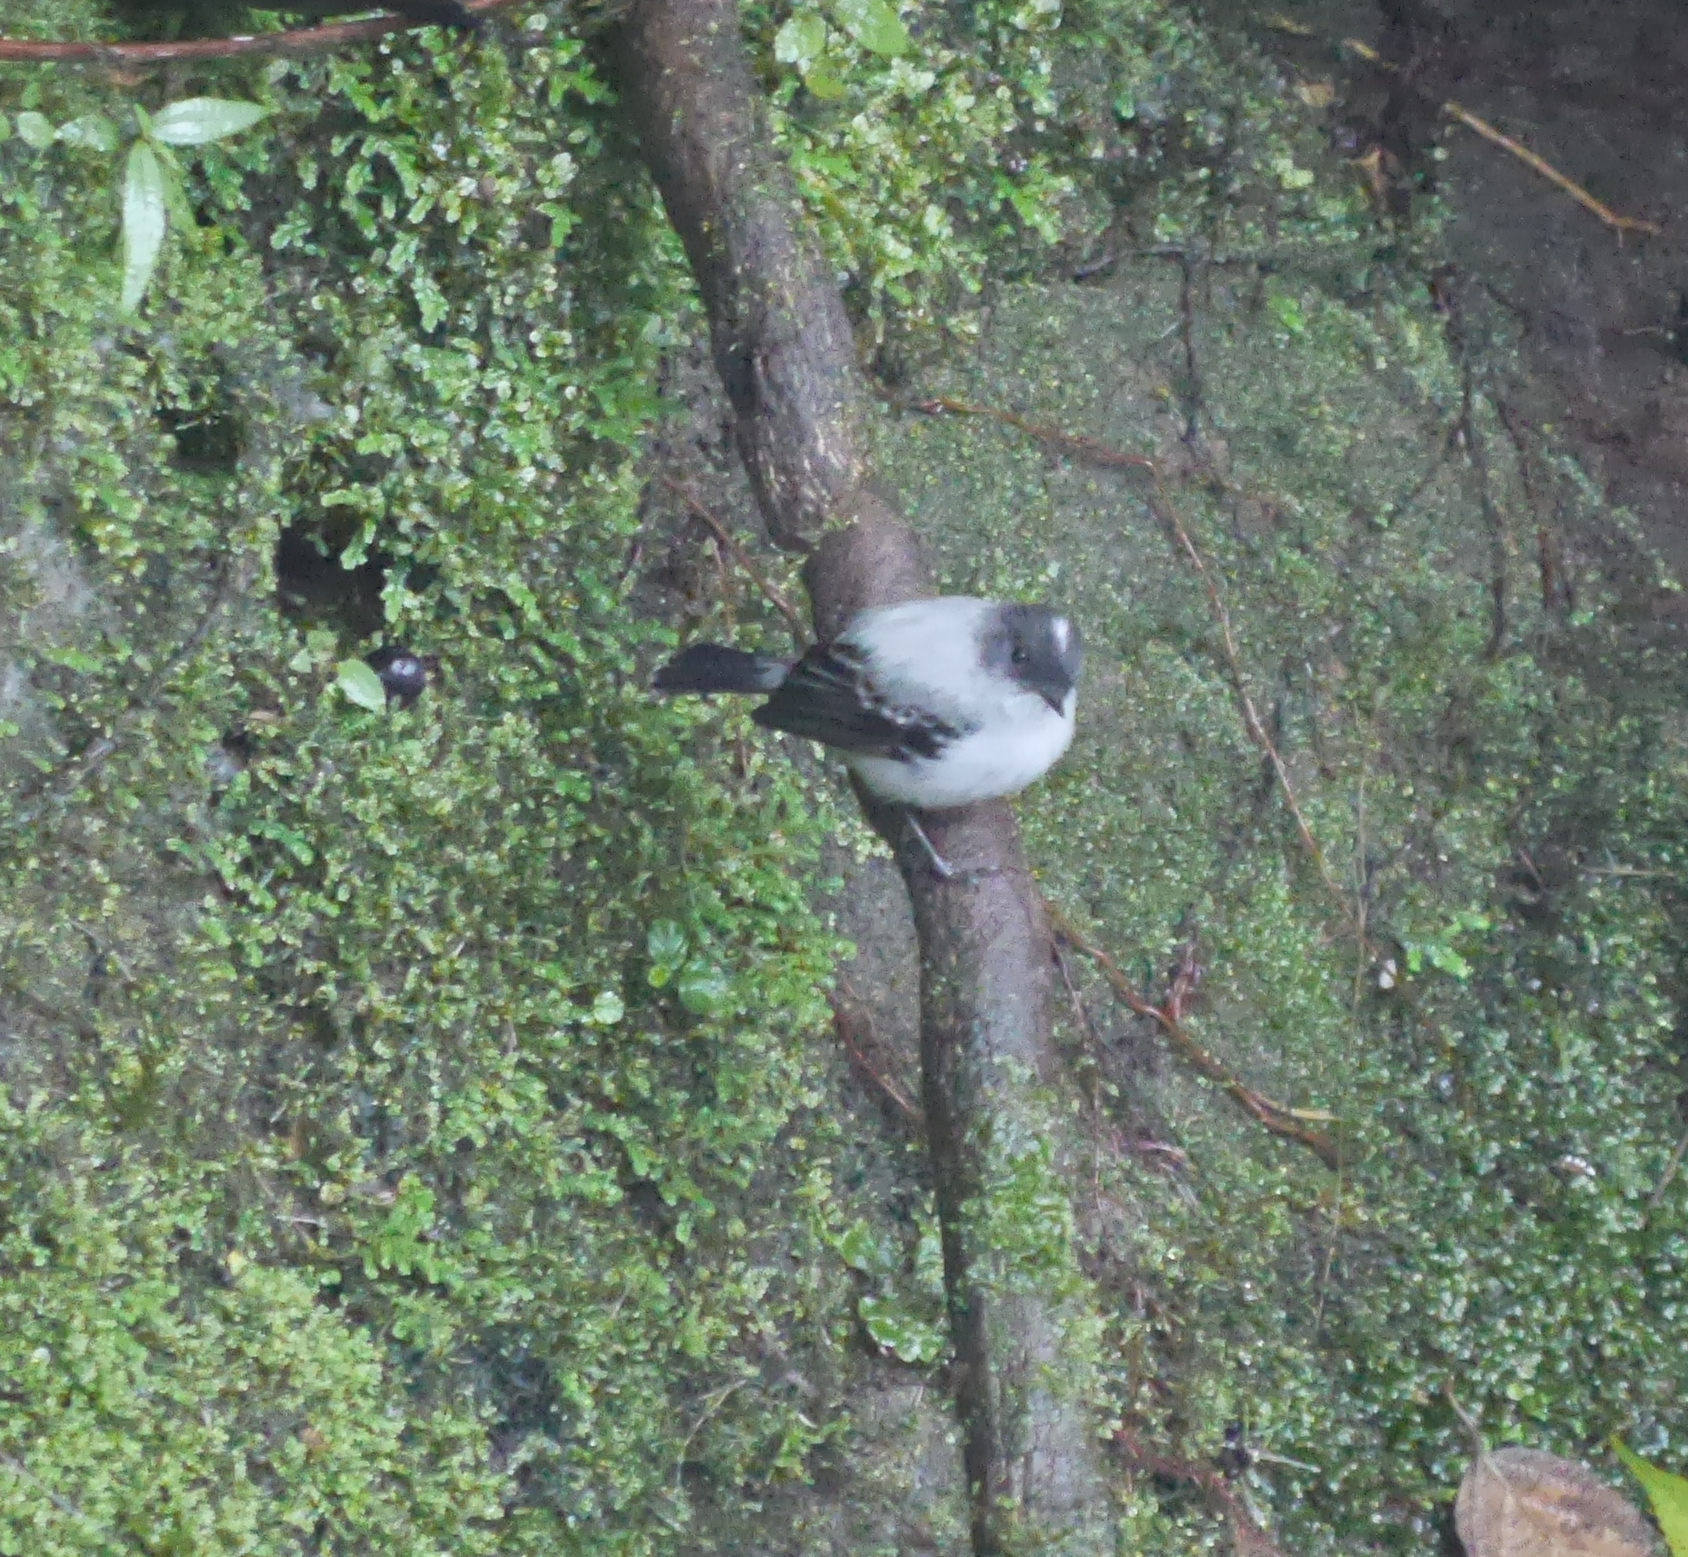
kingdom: Animalia
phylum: Chordata
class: Aves
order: Passeriformes
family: Tyrannidae
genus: Serpophaga
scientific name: Serpophaga cinerea
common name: Torrent tyrannulet
